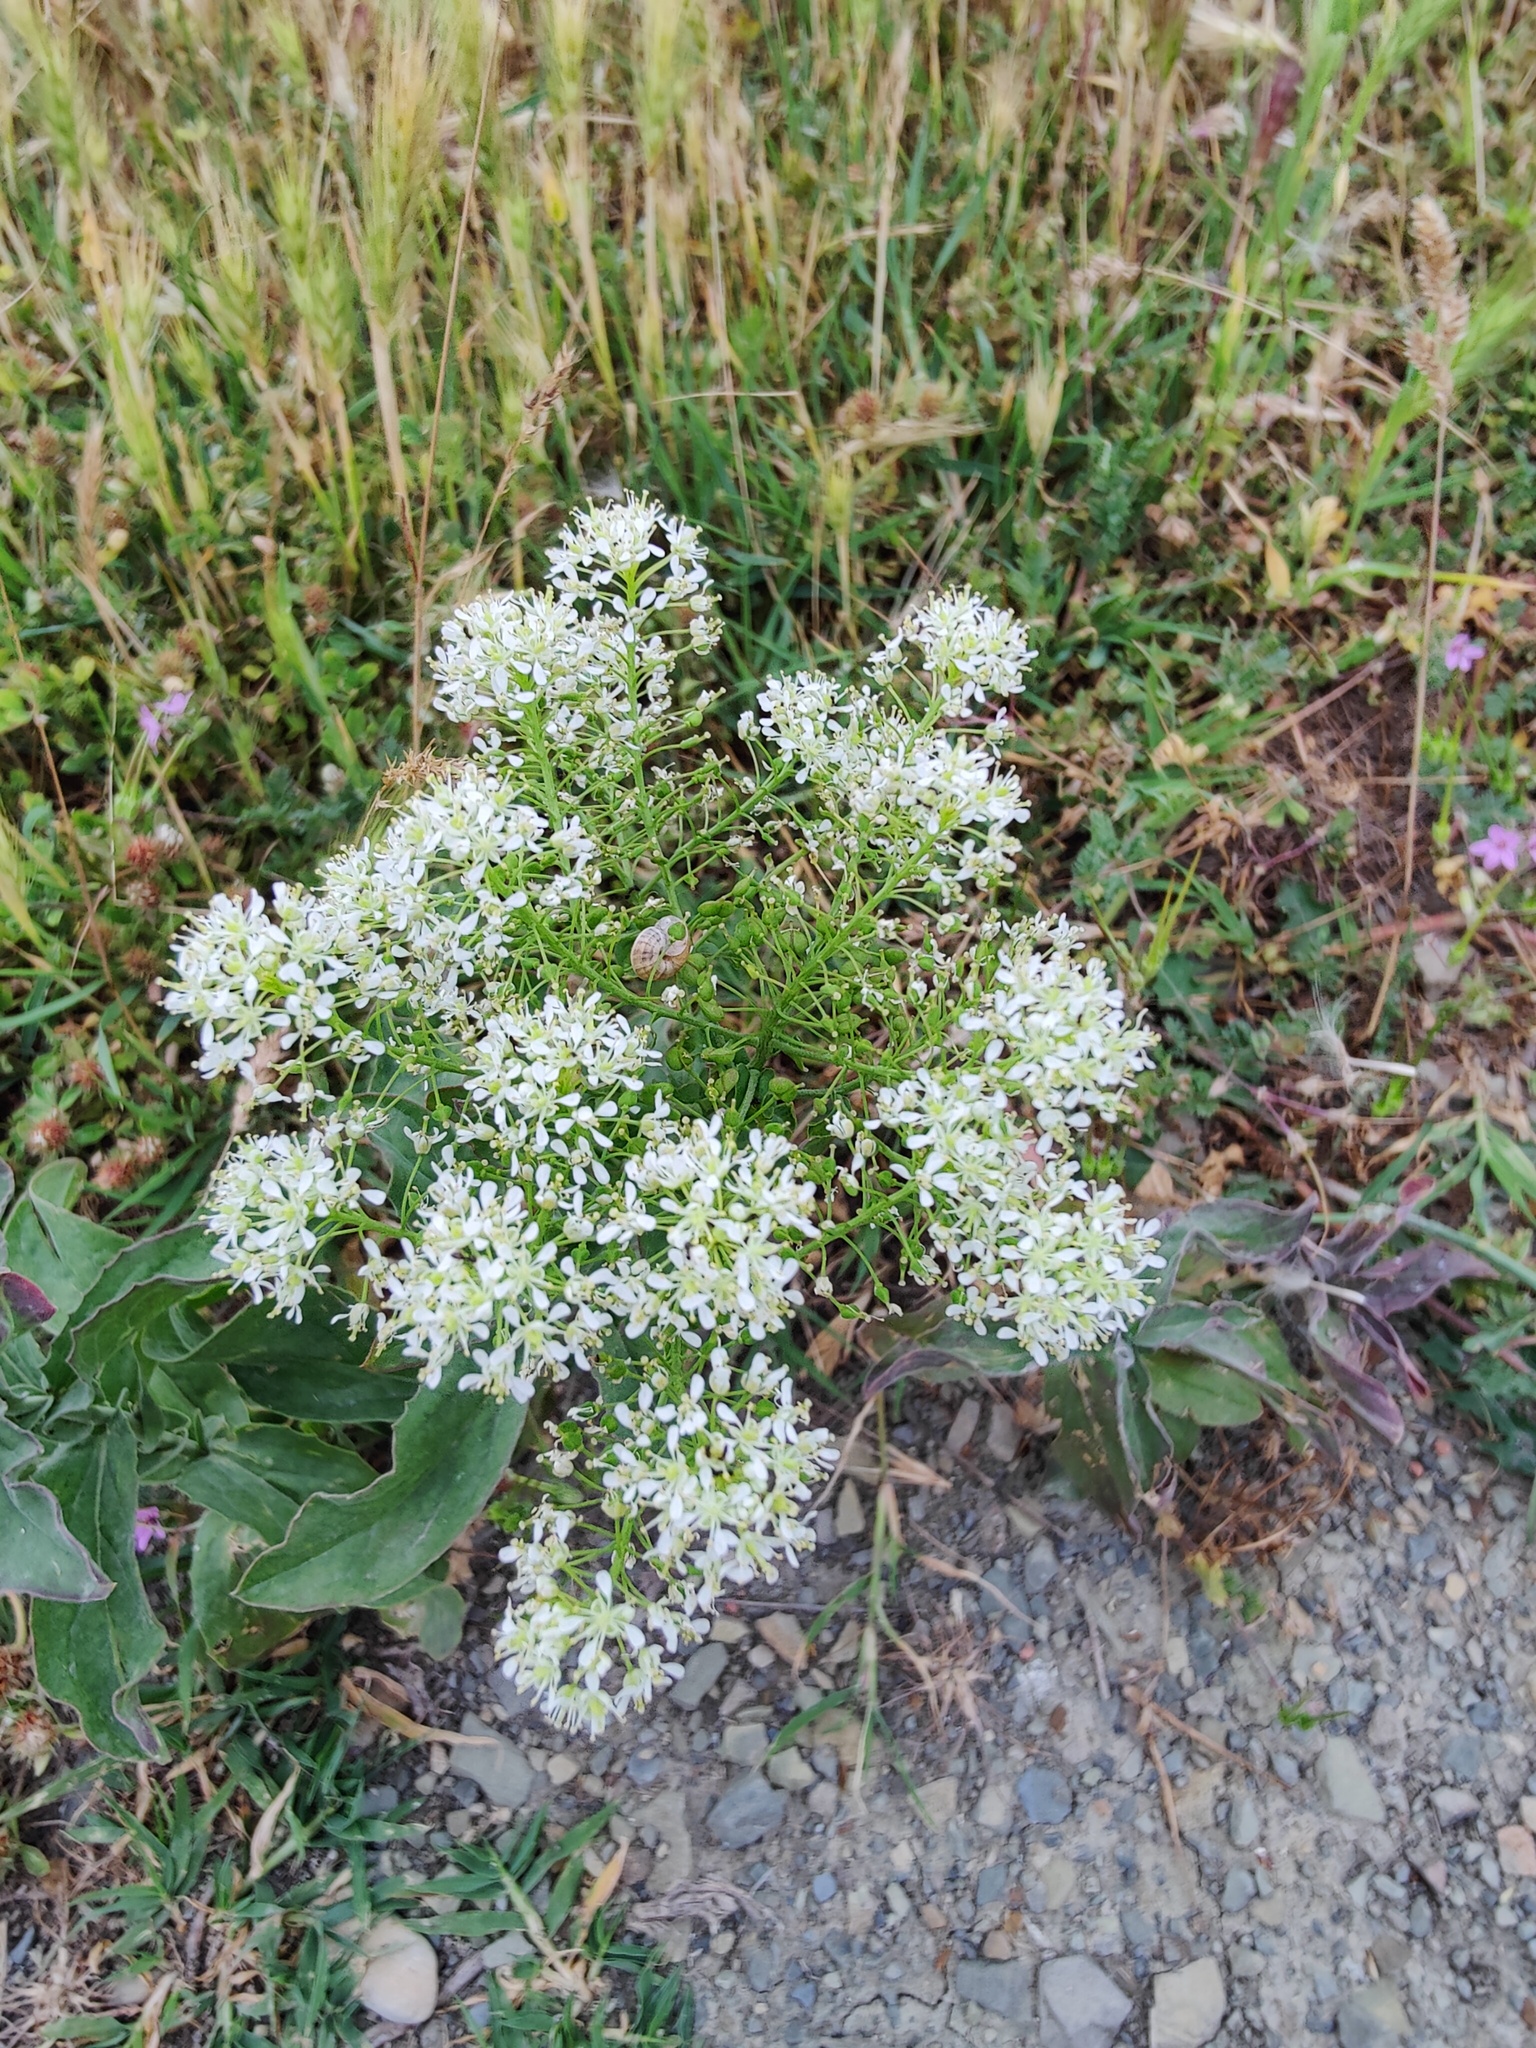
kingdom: Plantae
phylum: Tracheophyta
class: Magnoliopsida
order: Brassicales
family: Brassicaceae
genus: Lepidium
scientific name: Lepidium draba
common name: Hoary cress
